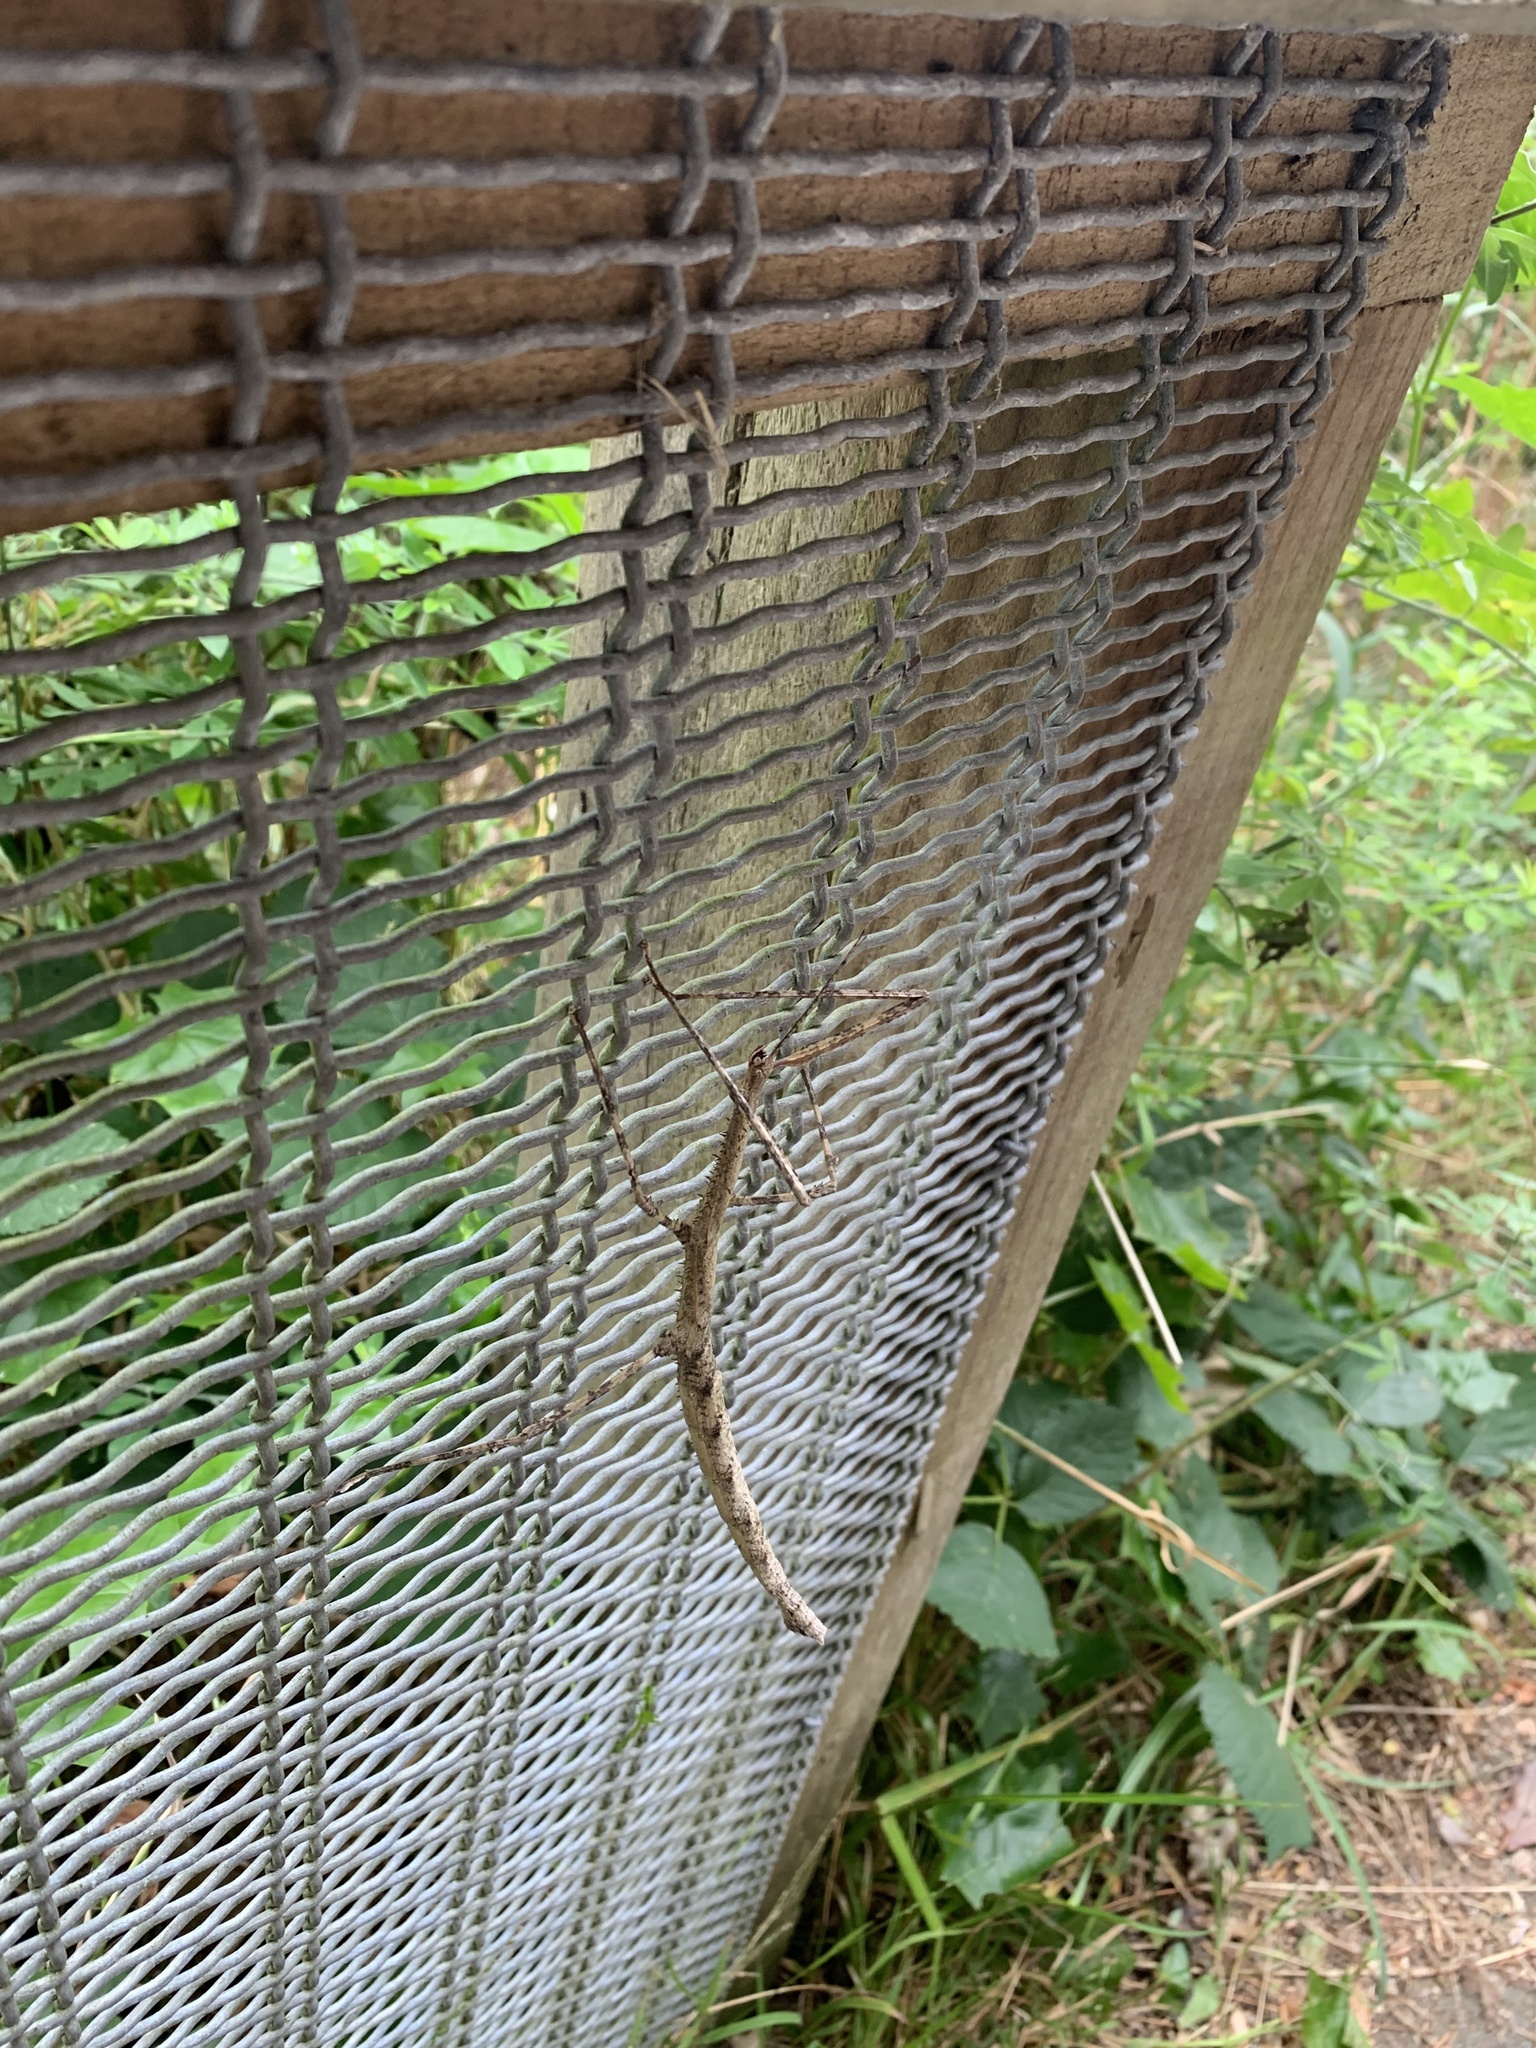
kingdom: Animalia
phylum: Arthropoda
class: Insecta
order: Phasmida
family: Phasmatidae
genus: Argosarchus
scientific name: Argosarchus horridus
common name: Bristly stick insect
